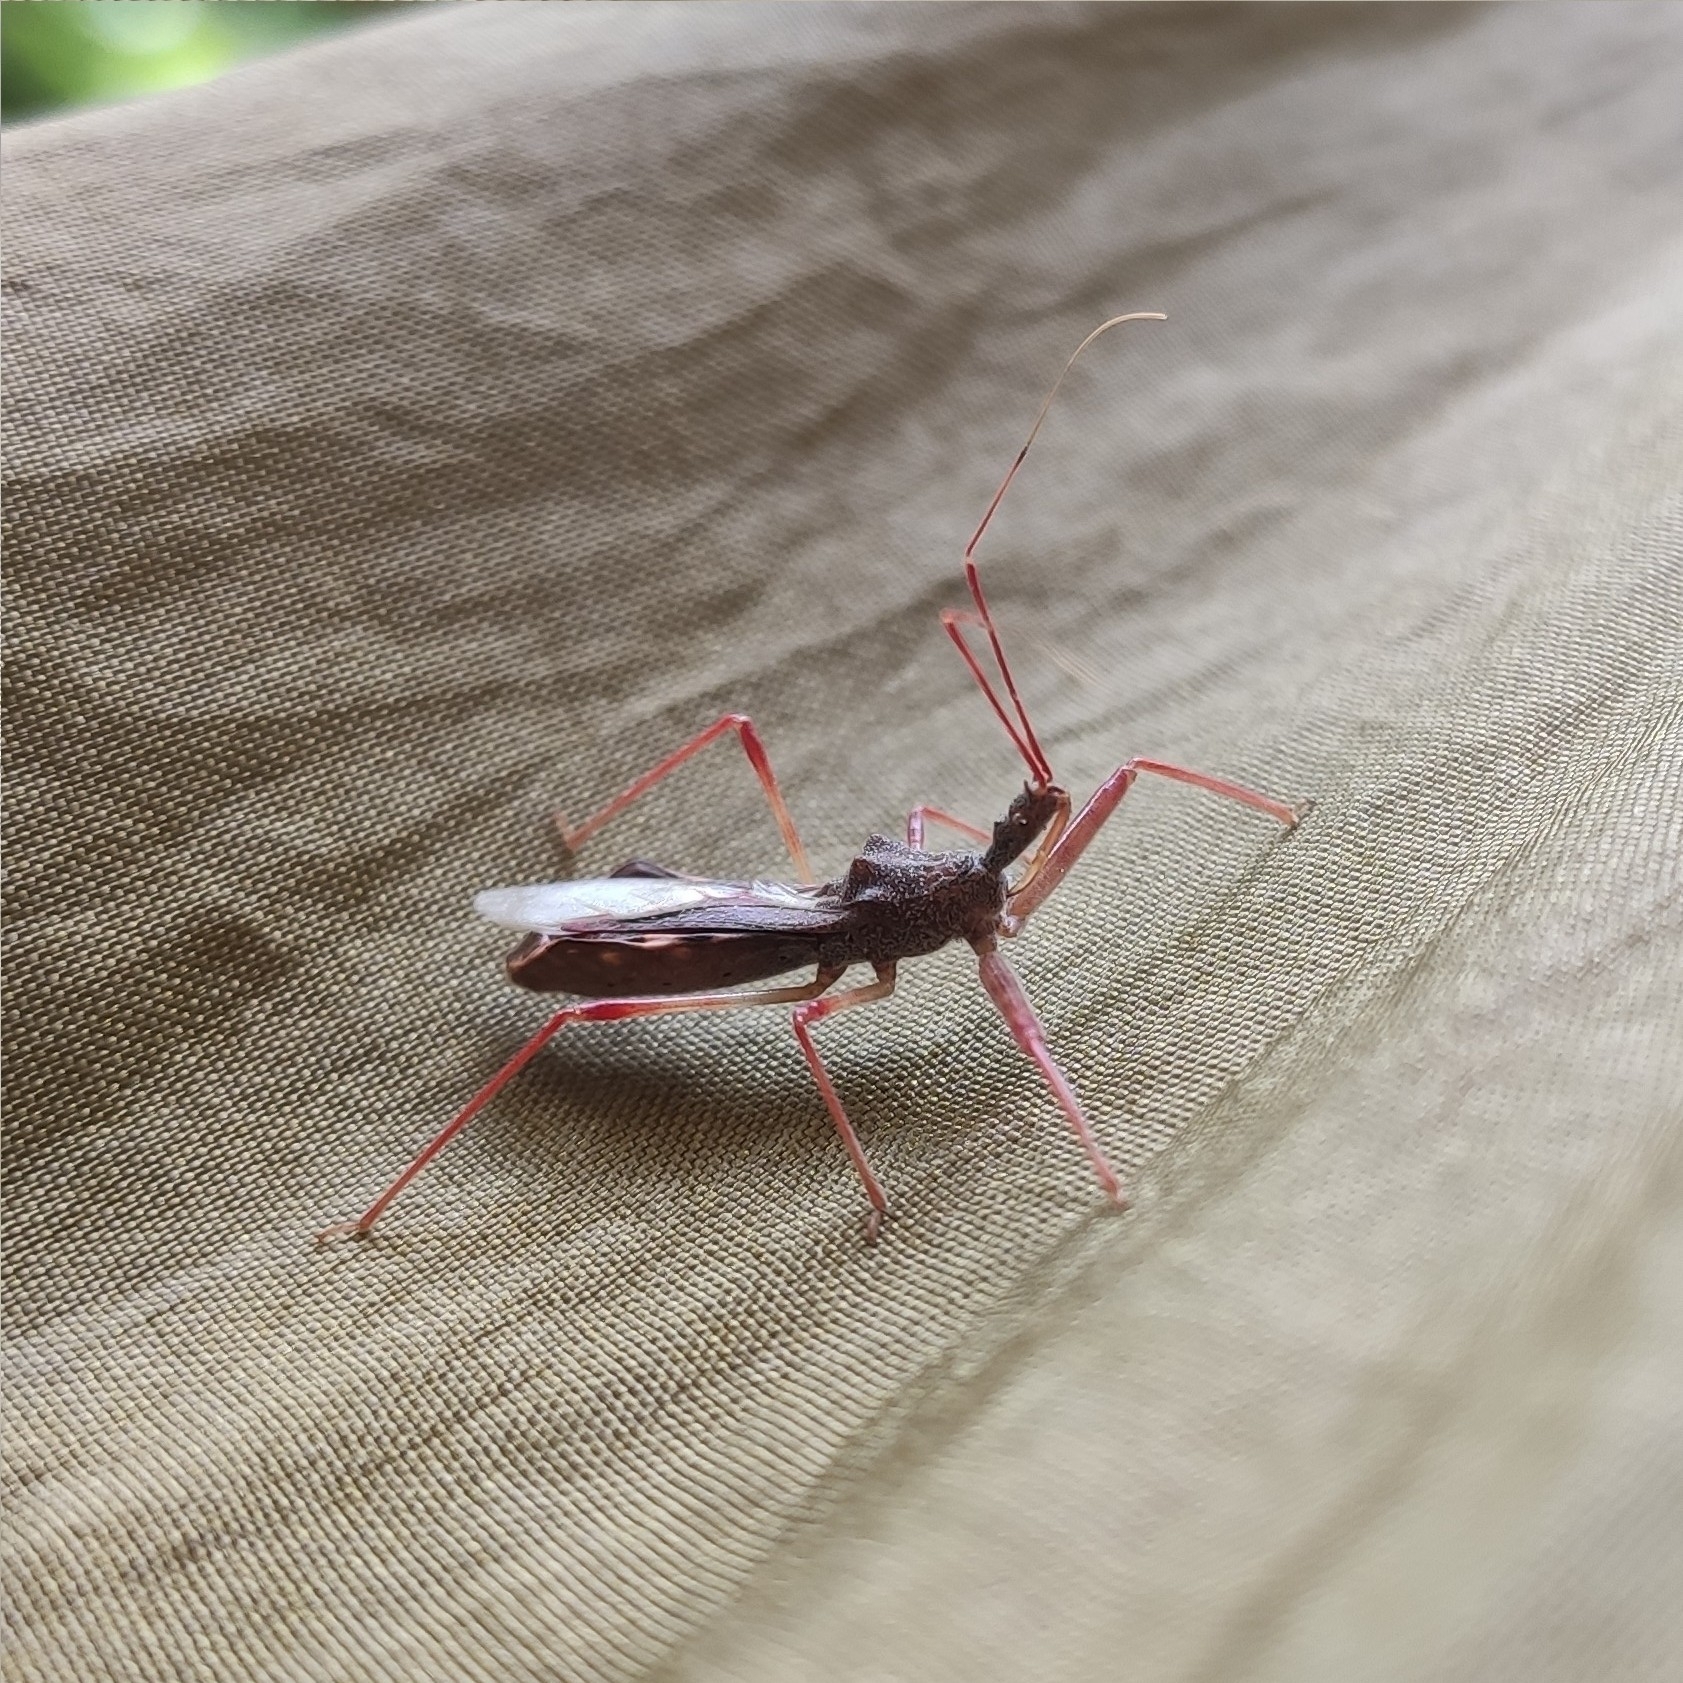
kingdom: Animalia
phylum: Arthropoda
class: Insecta
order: Hemiptera
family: Reduviidae
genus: Nagusta
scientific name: Nagusta goedelii
